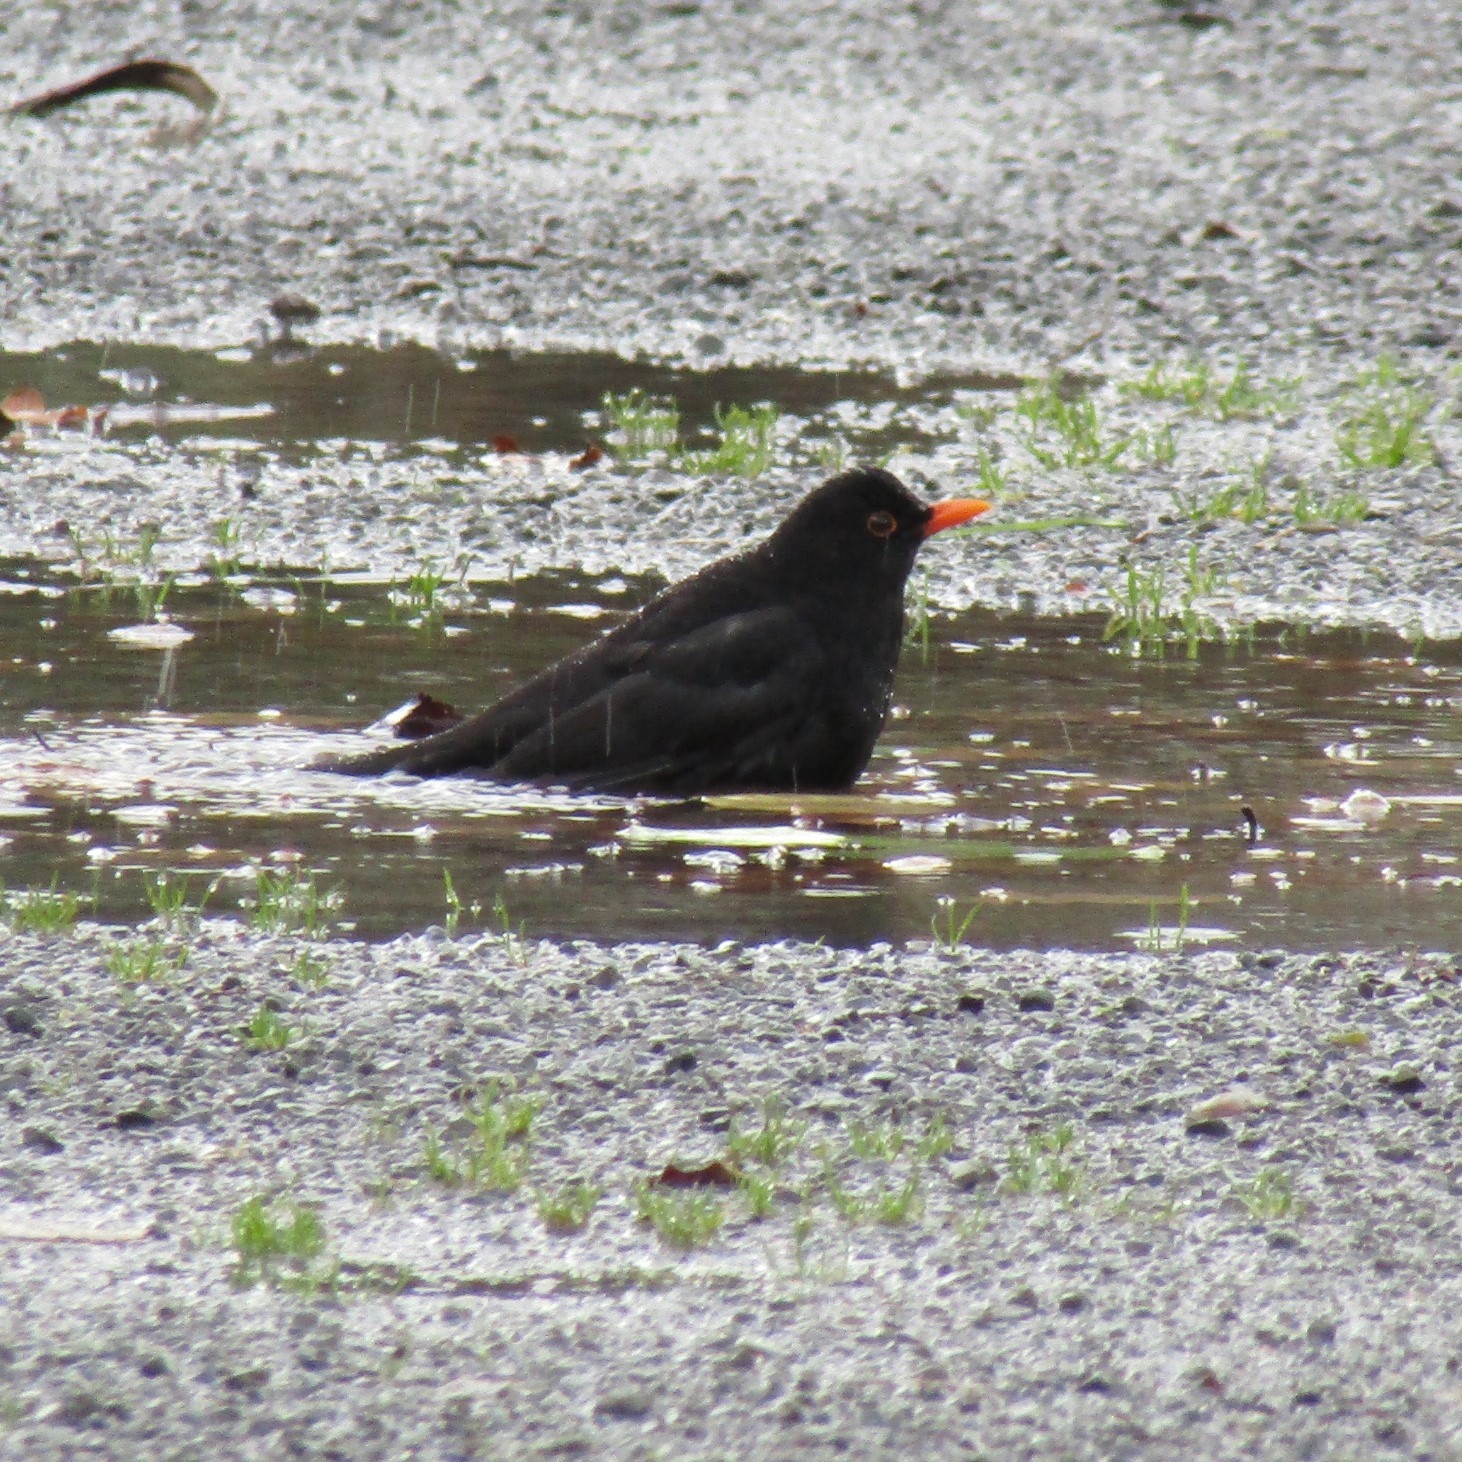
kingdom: Animalia
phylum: Chordata
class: Aves
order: Passeriformes
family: Turdidae
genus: Turdus
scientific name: Turdus merula
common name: Common blackbird
